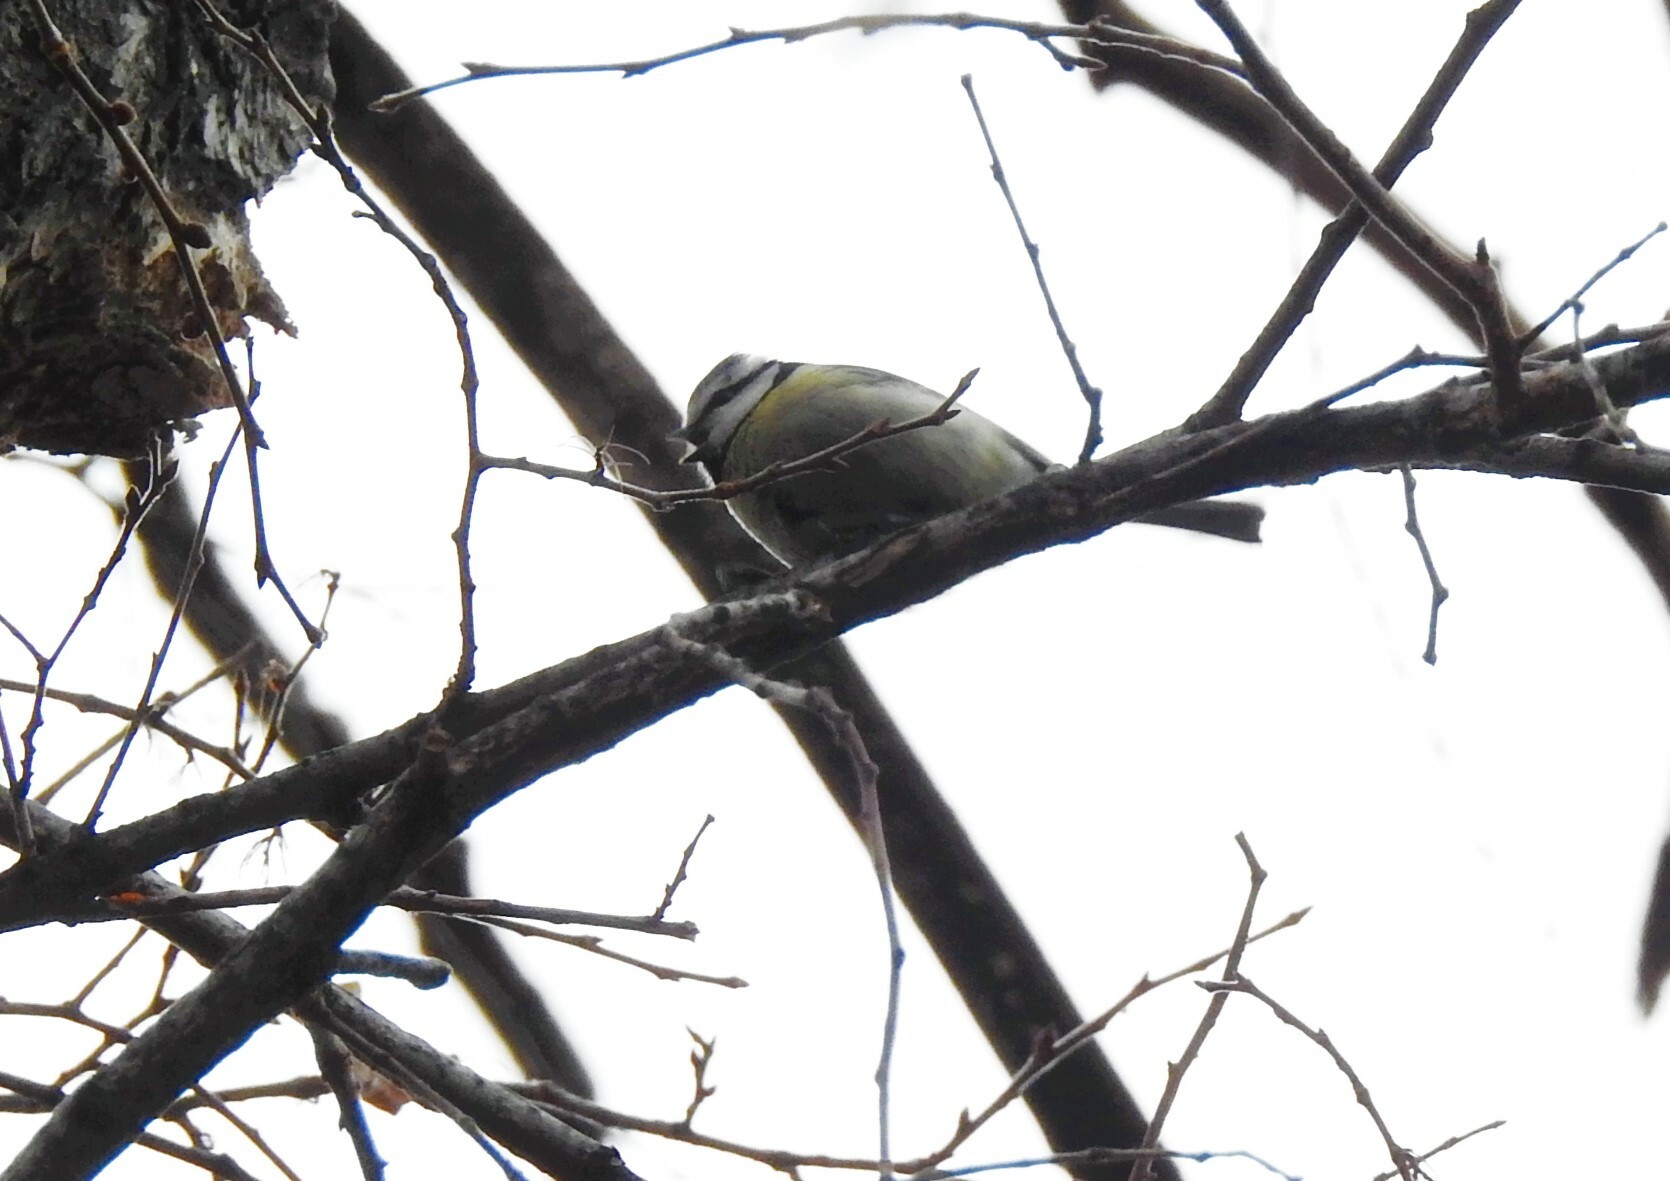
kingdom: Animalia
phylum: Chordata
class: Aves
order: Passeriformes
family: Paridae
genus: Cyanistes
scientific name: Cyanistes caeruleus
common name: Eurasian blue tit
